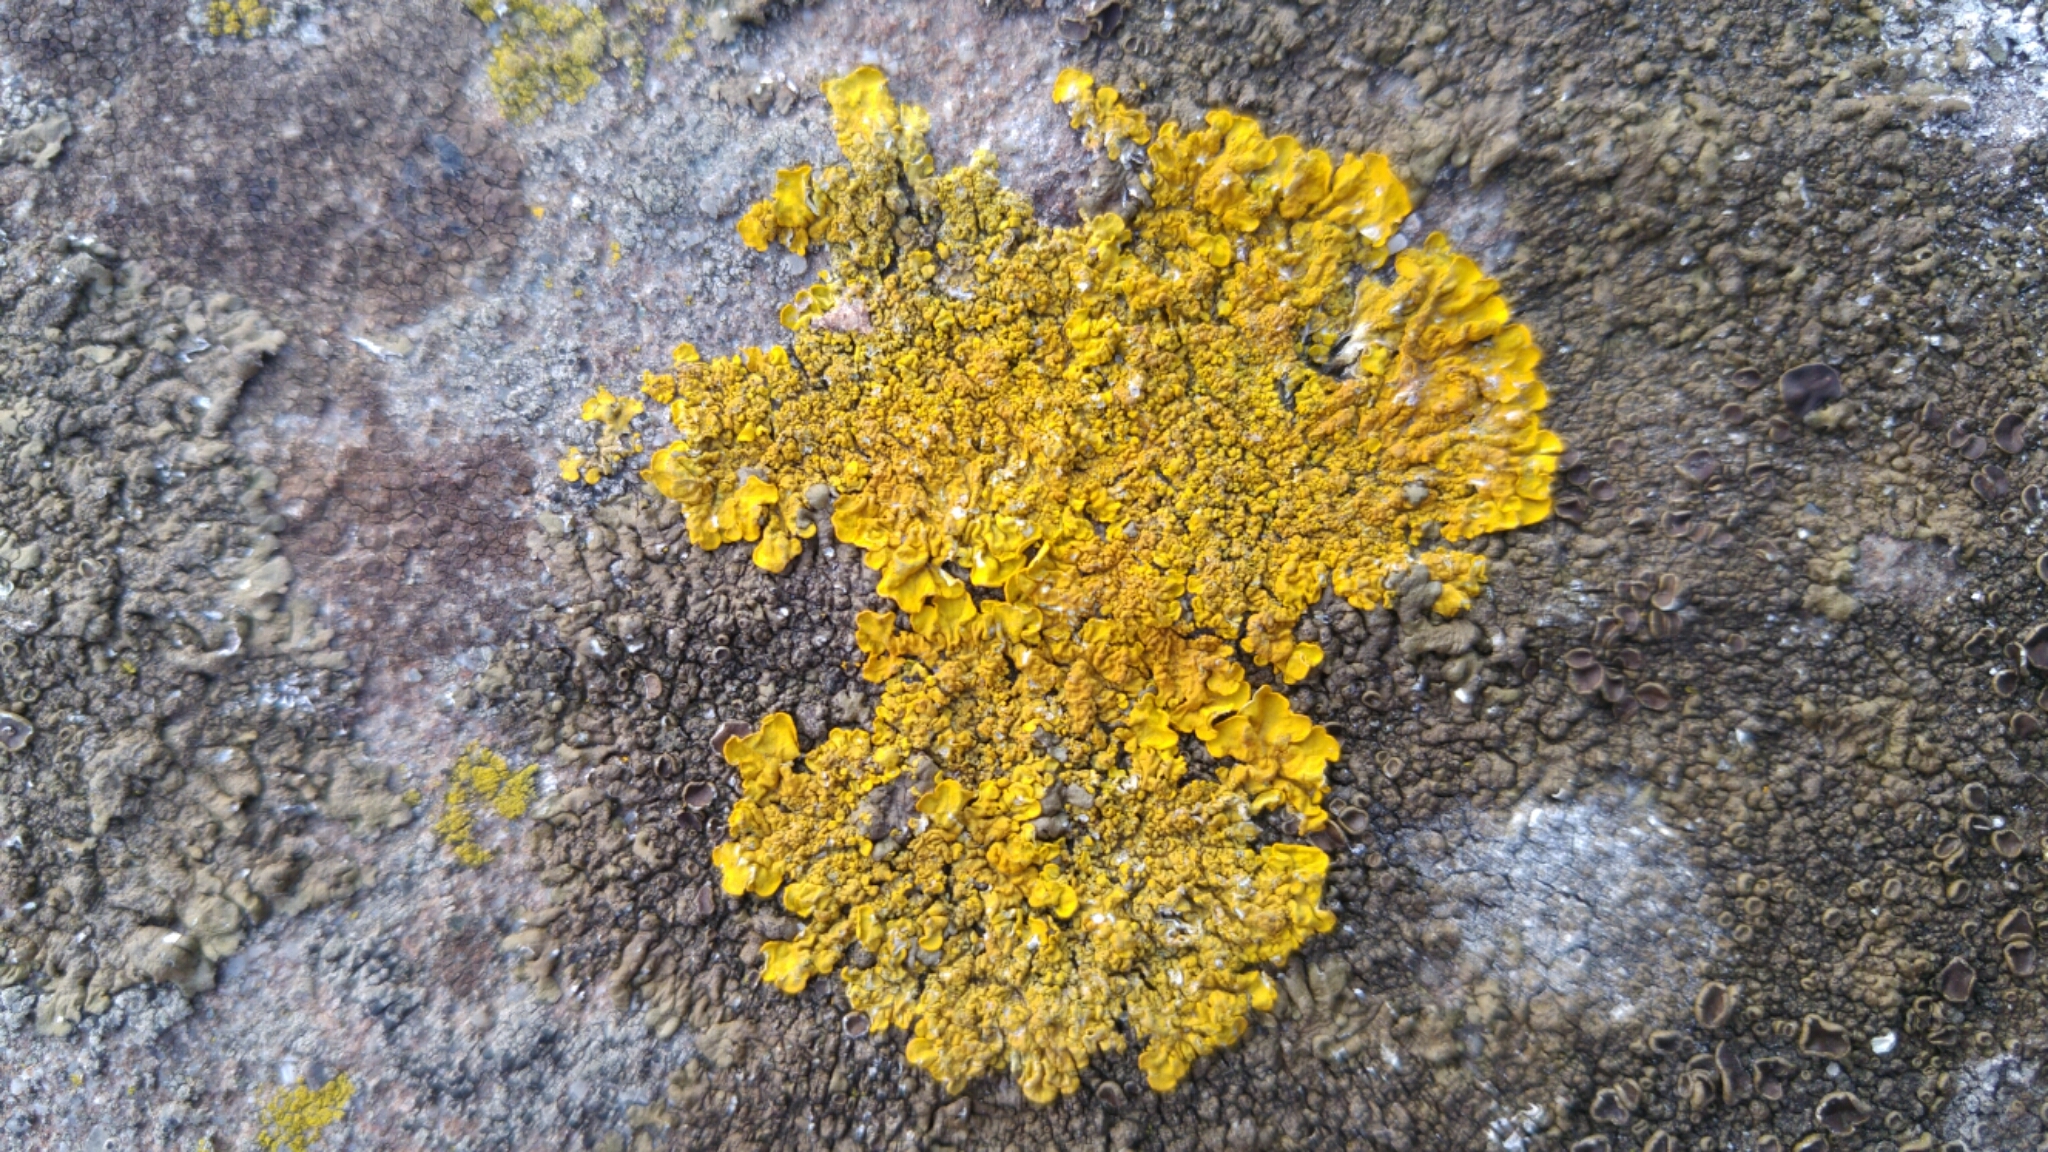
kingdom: Fungi
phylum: Ascomycota
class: Lecanoromycetes
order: Teloschistales
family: Teloschistaceae
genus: Xanthoria
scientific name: Xanthoria parietina
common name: Common orange lichen
